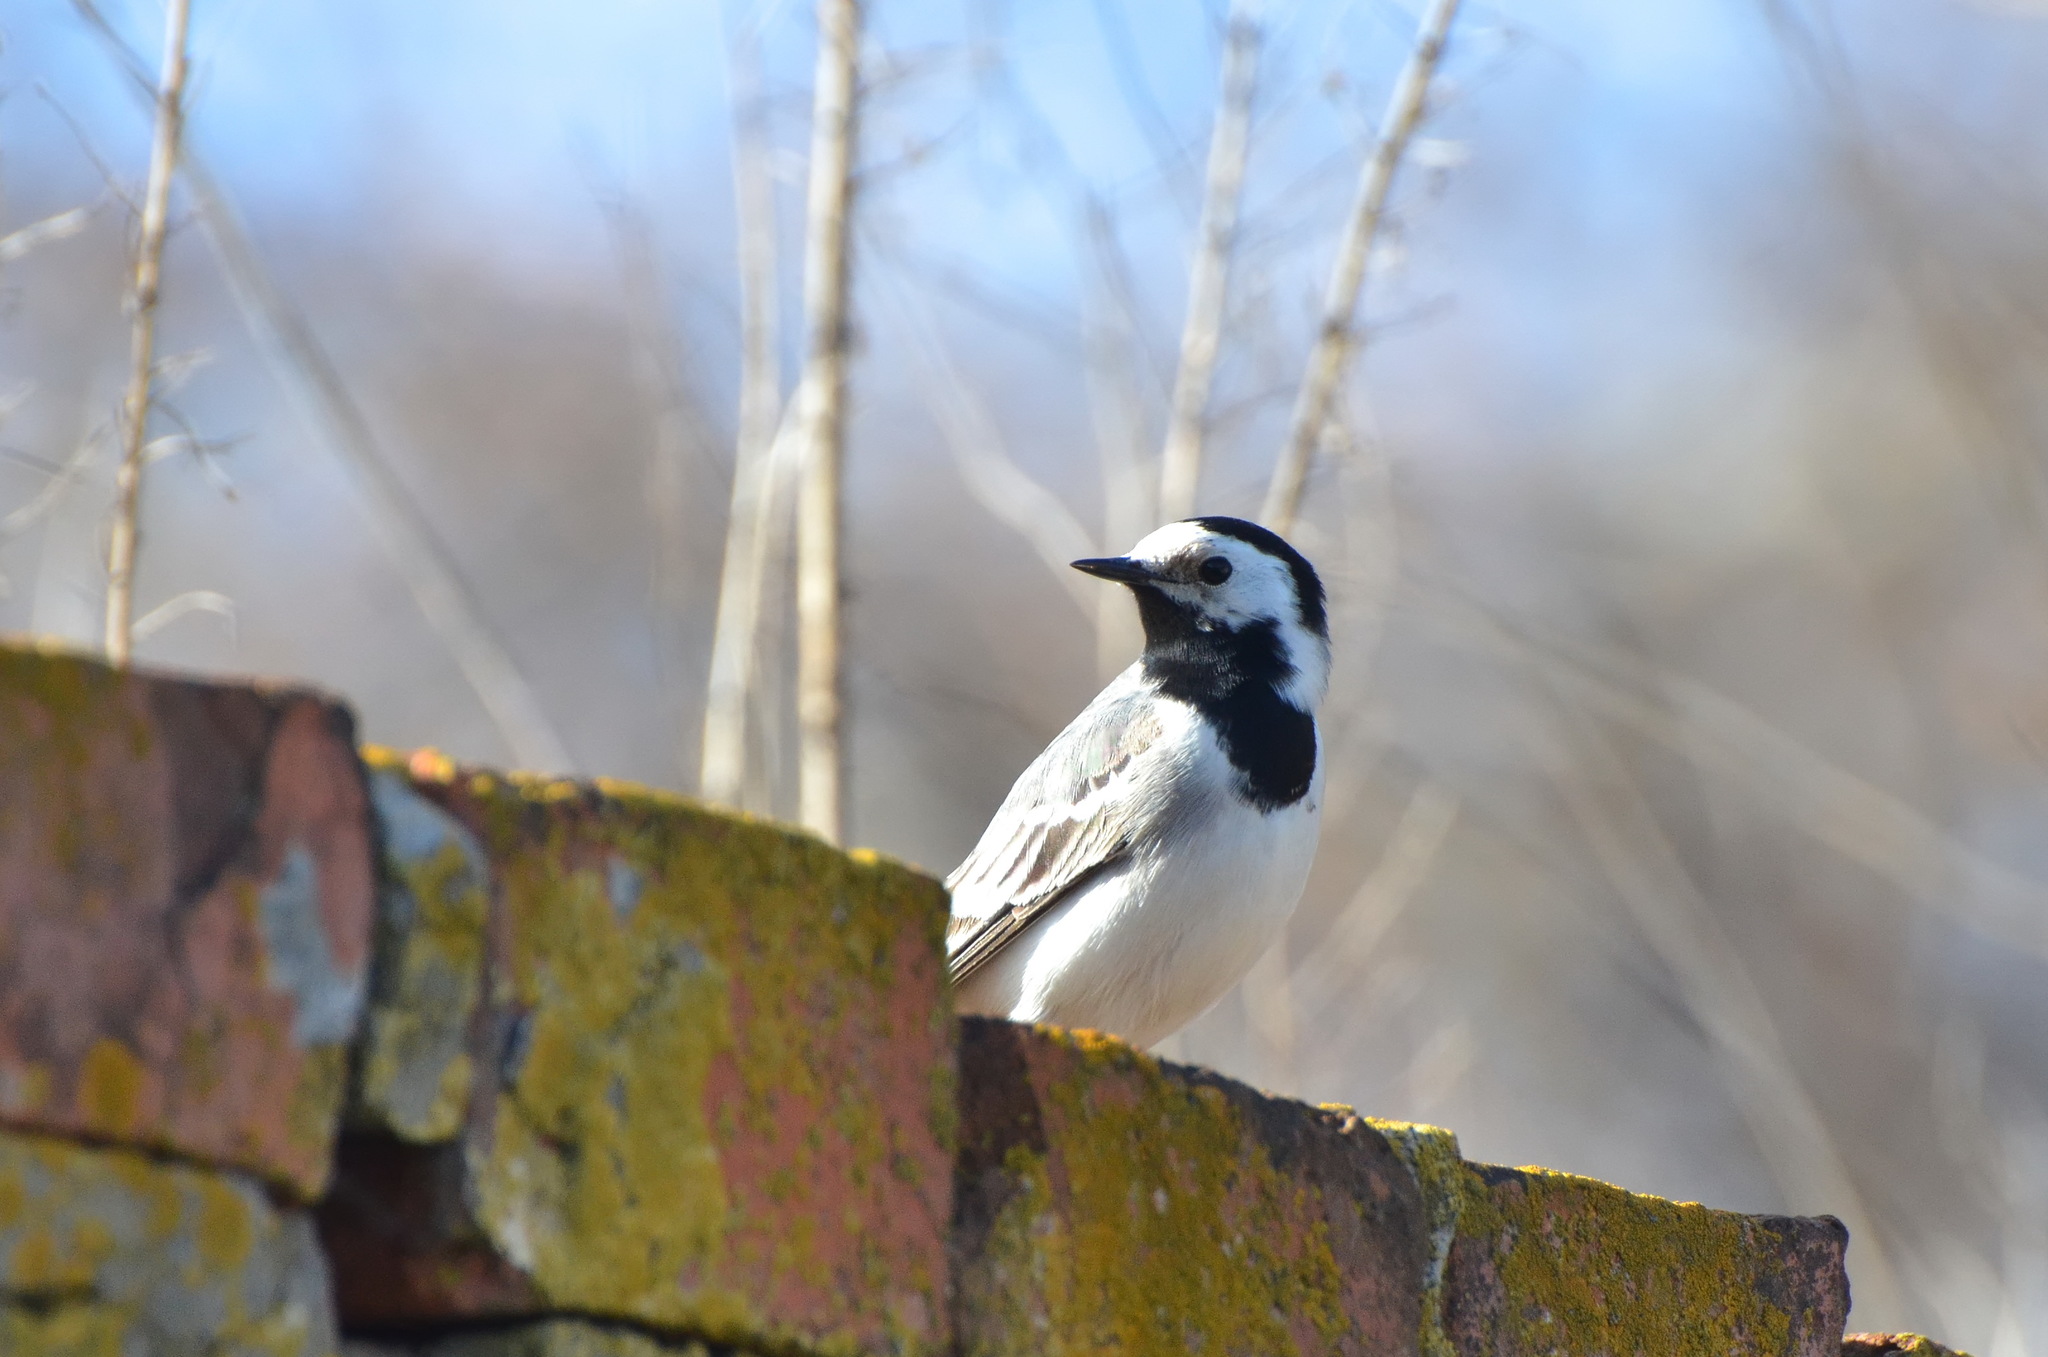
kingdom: Animalia
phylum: Chordata
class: Aves
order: Passeriformes
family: Motacillidae
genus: Motacilla
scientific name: Motacilla alba
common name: White wagtail
